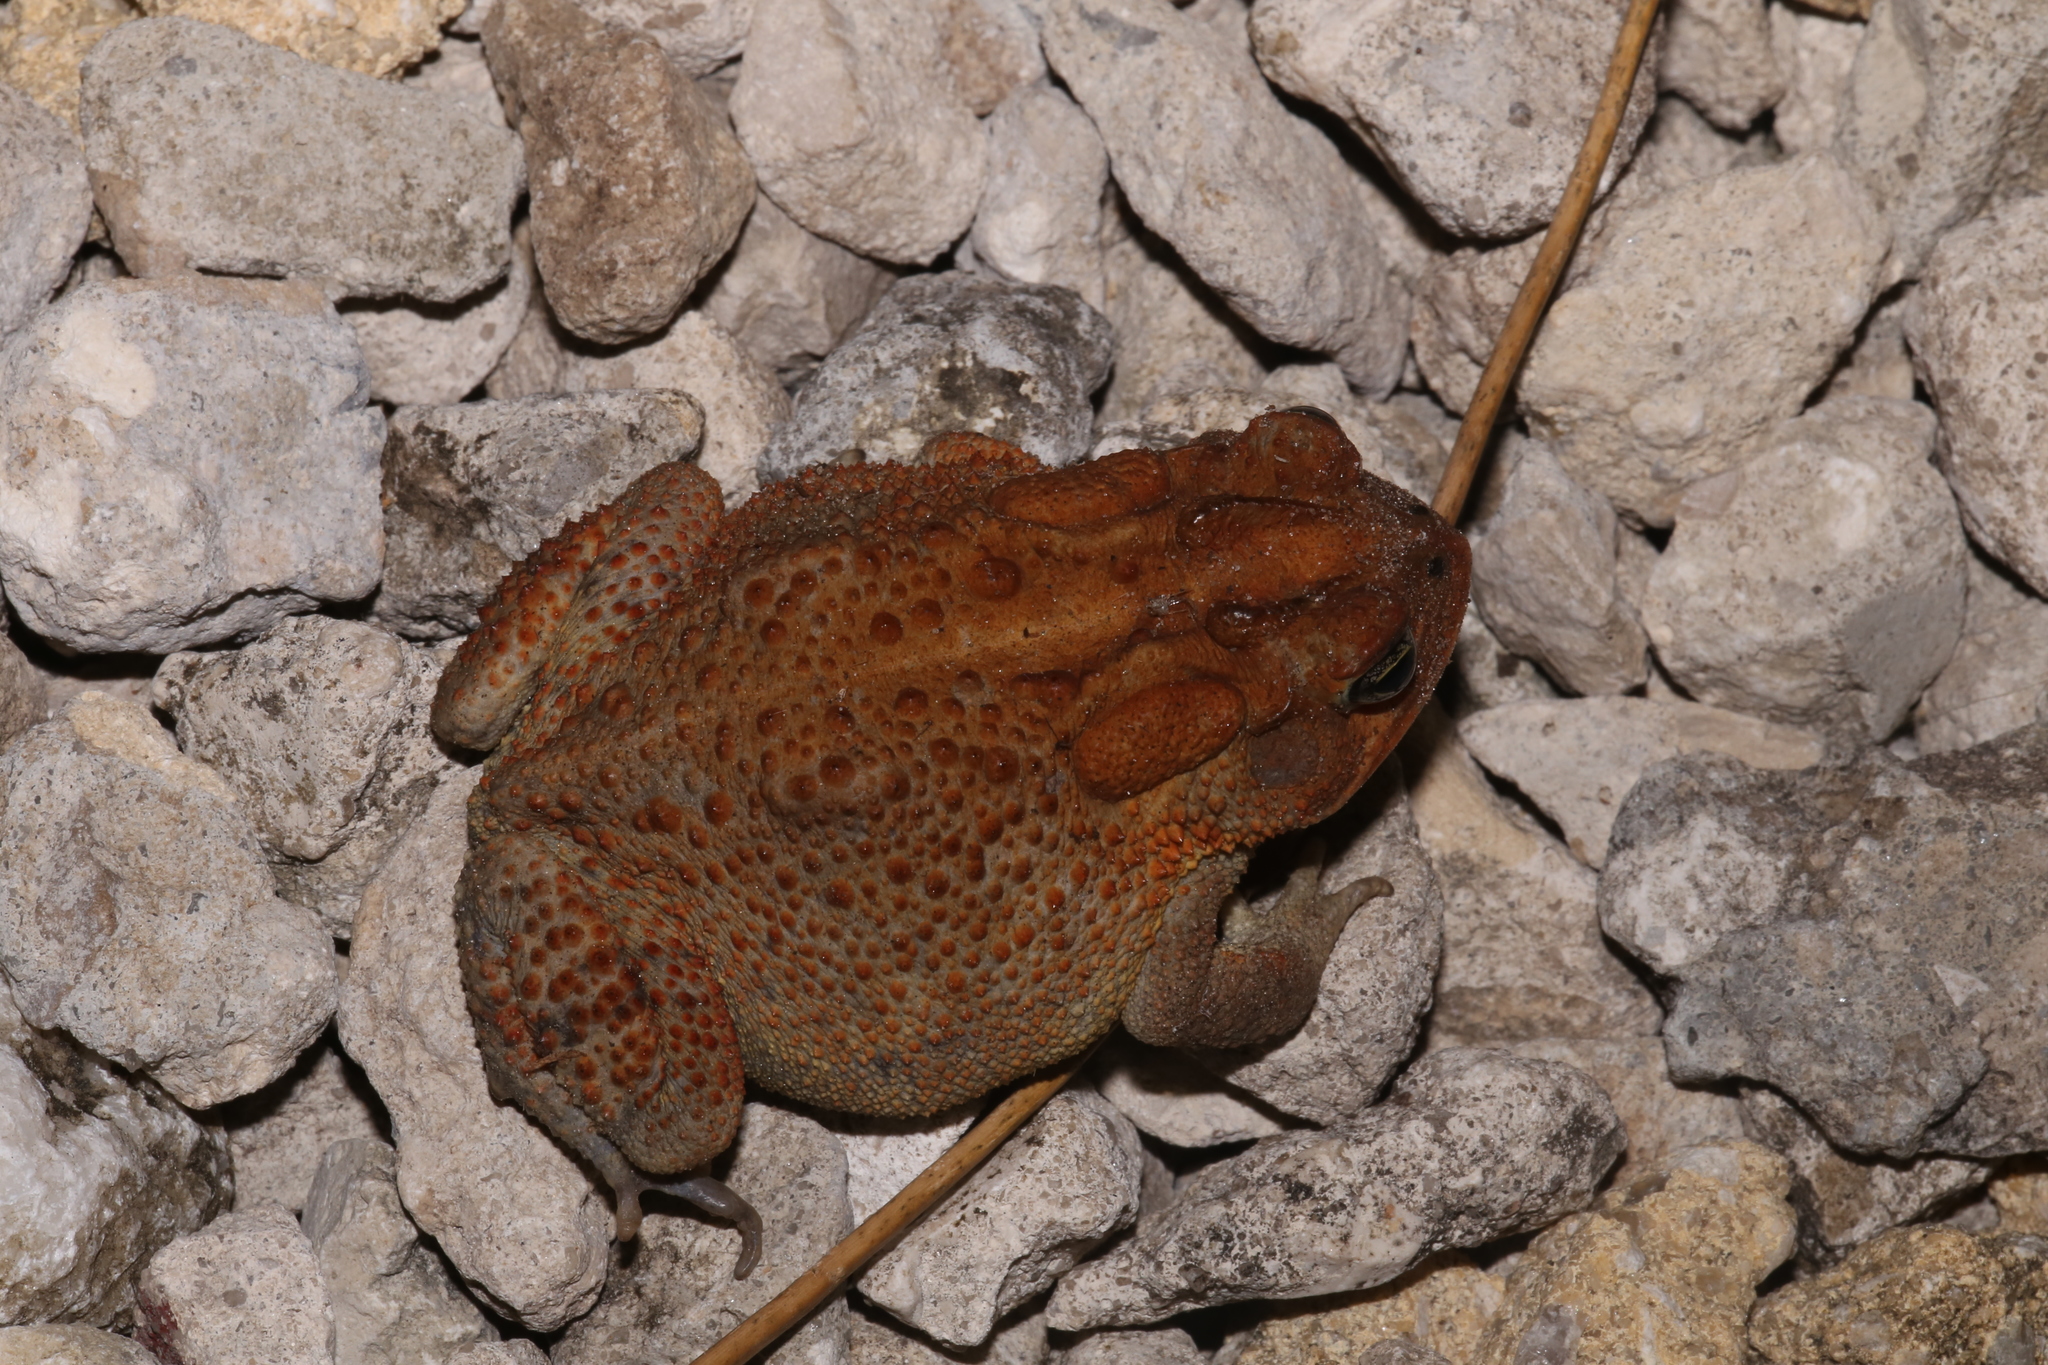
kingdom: Animalia
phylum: Chordata
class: Amphibia
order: Anura
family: Bufonidae
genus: Anaxyrus
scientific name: Anaxyrus terrestris
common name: Southern toad
